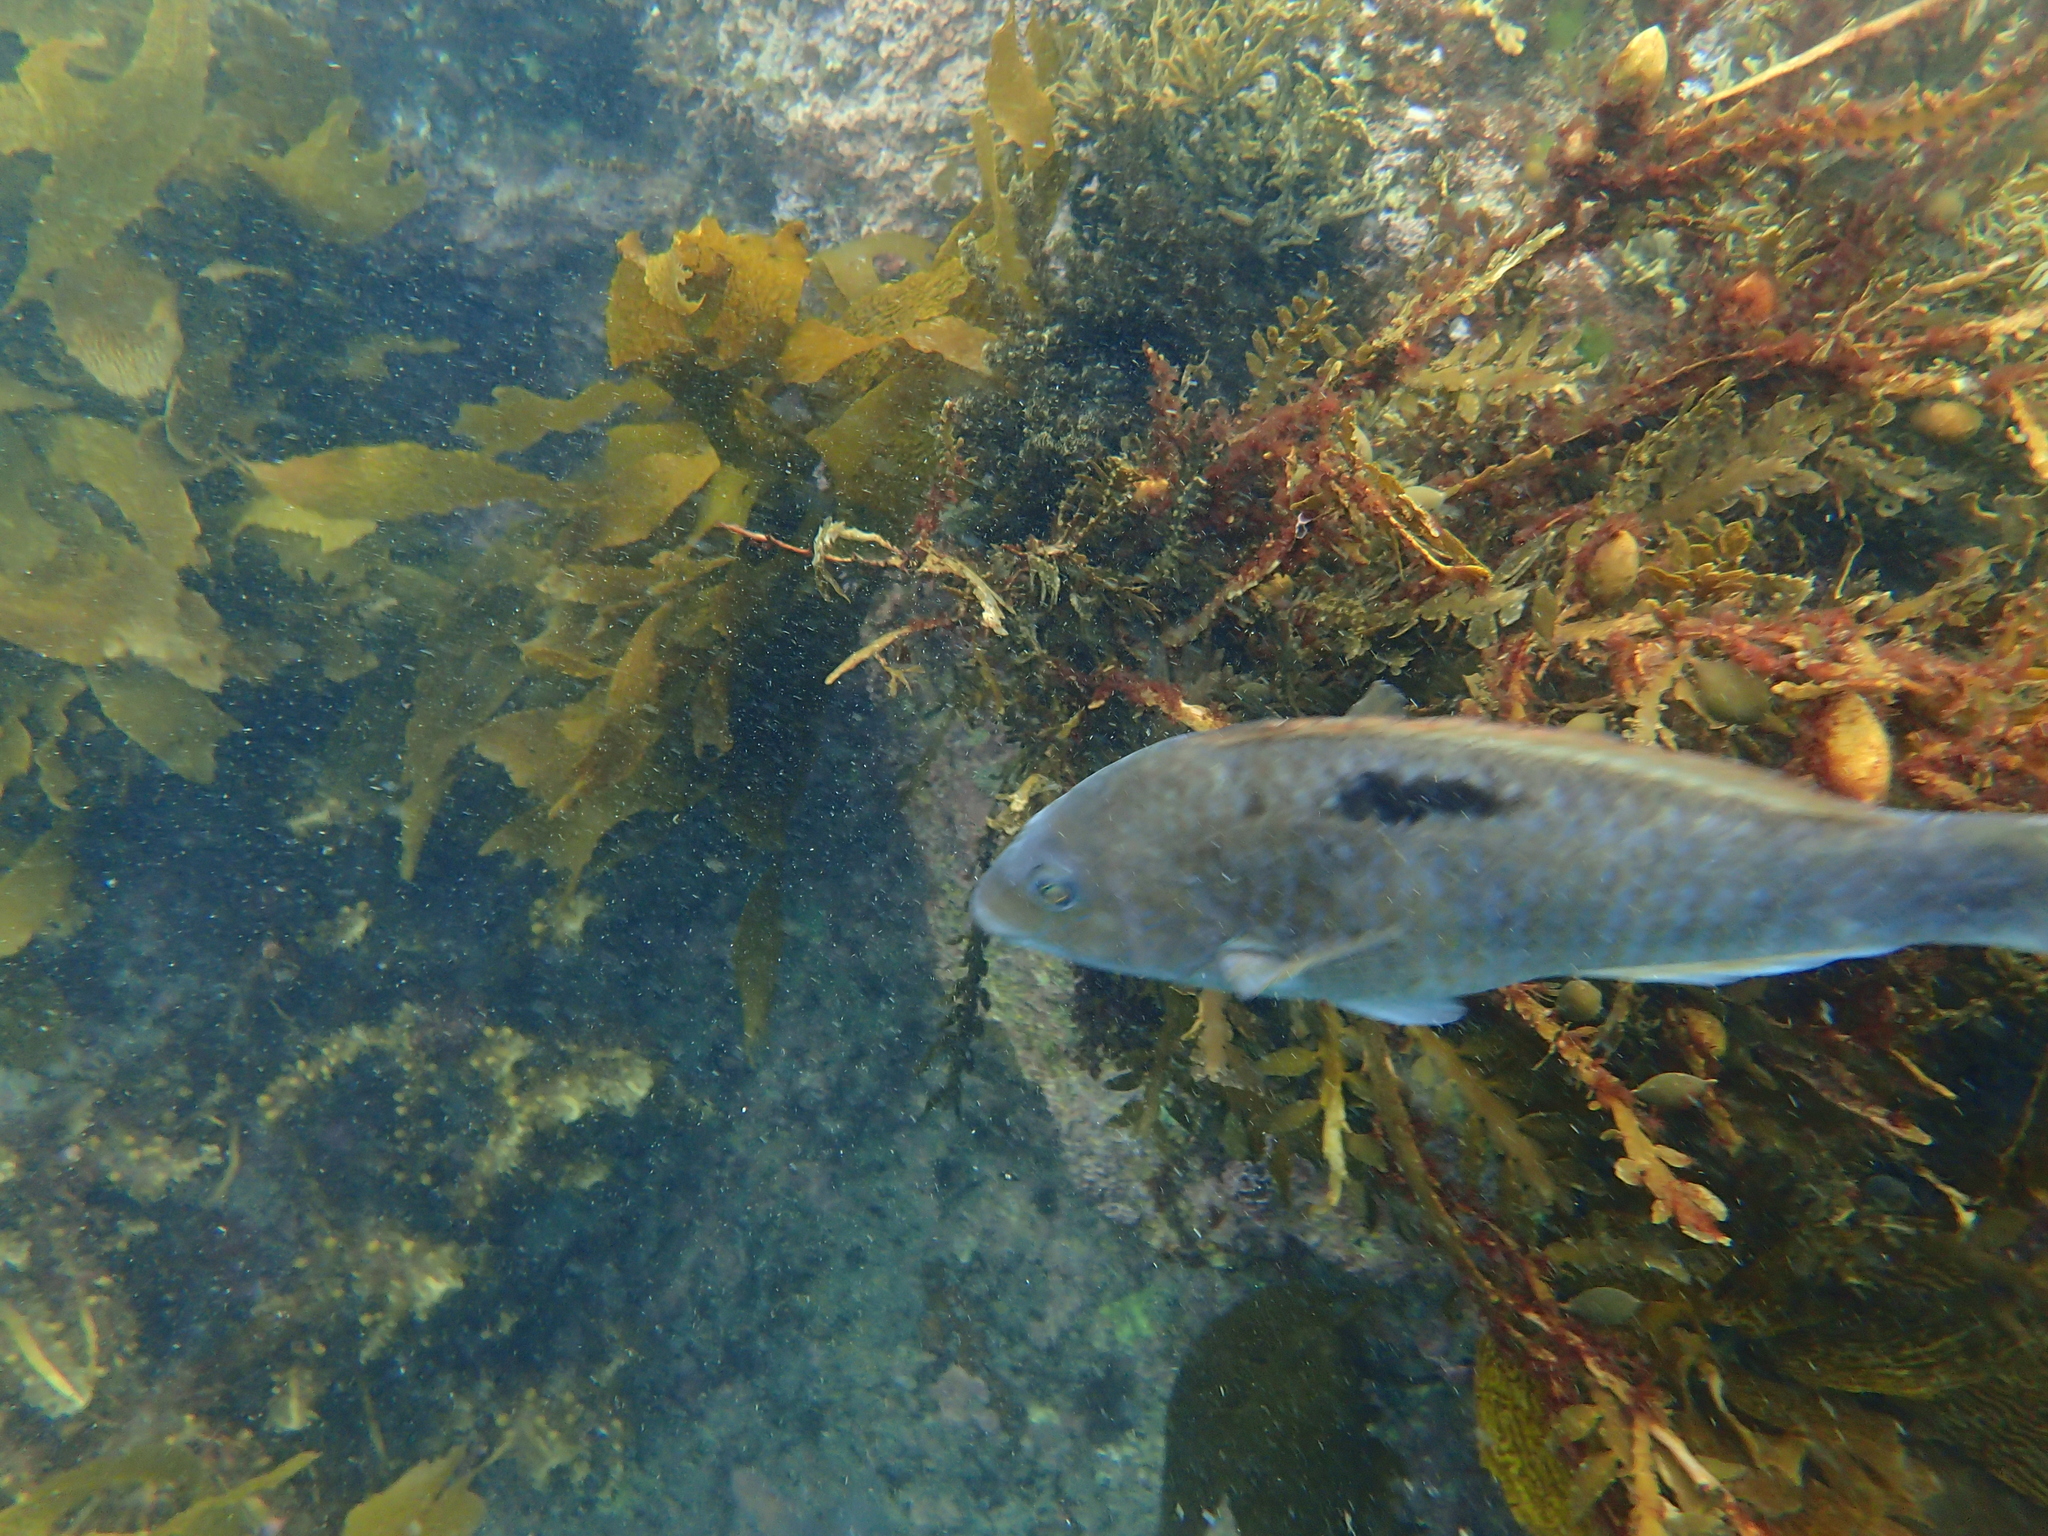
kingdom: Animalia
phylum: Chordata
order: Perciformes
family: Labridae
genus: Notolabrus
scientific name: Notolabrus celidotus
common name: Spotty
